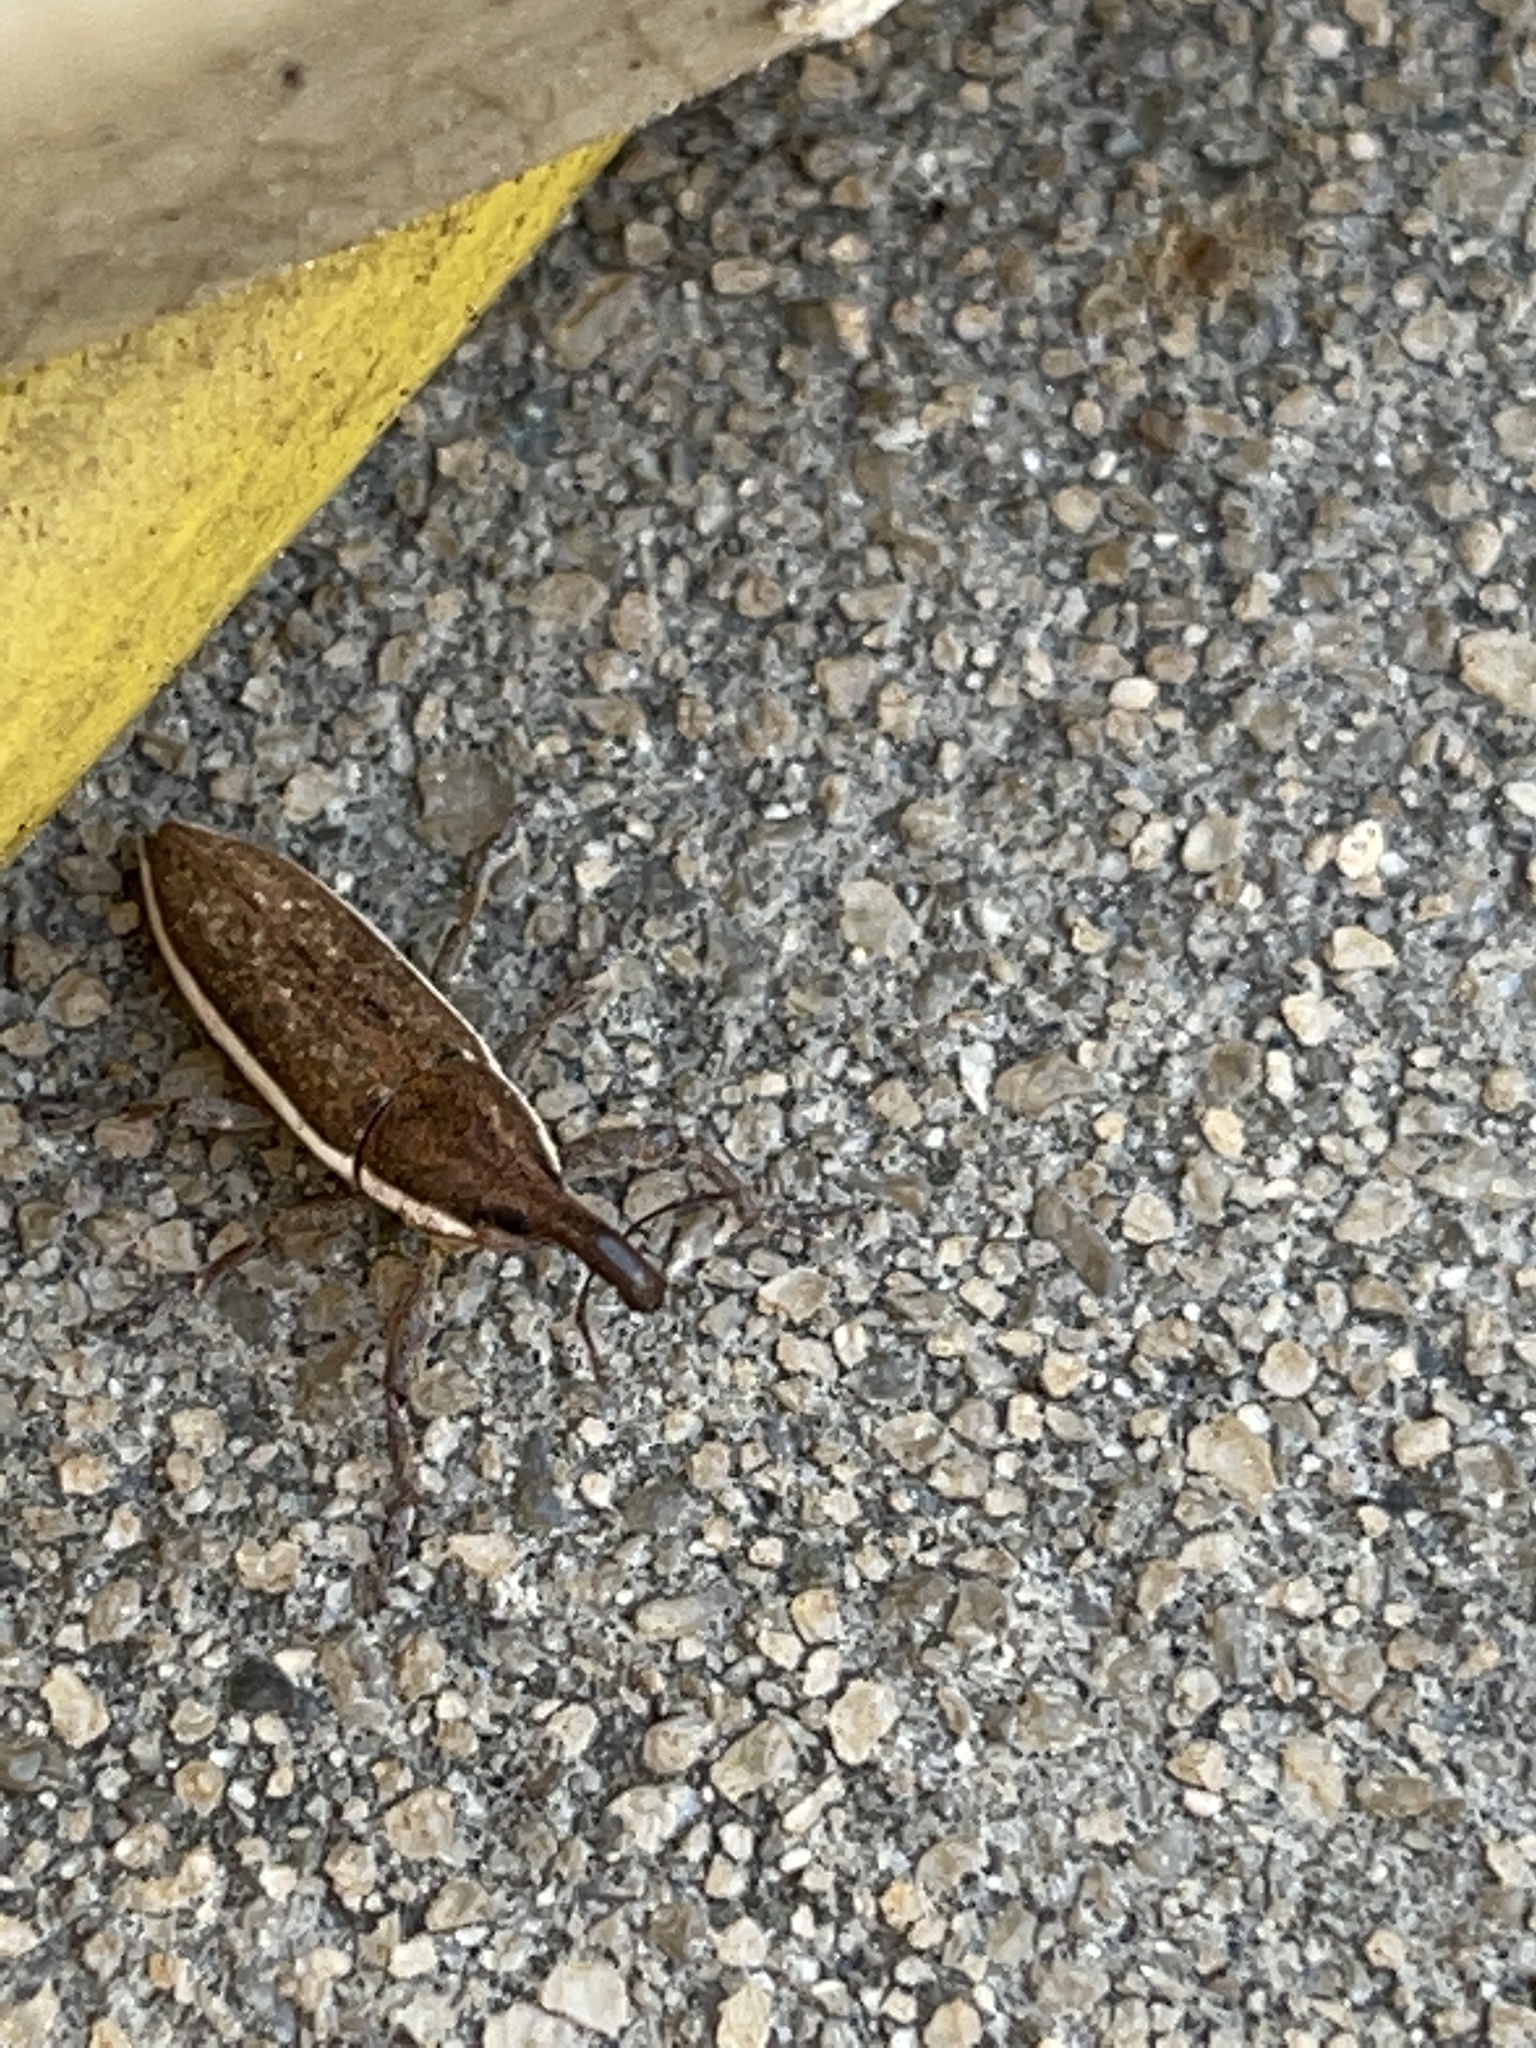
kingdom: Animalia
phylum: Arthropoda
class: Insecta
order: Coleoptera
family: Curculionidae
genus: Lixus
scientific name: Lixus amplexus
